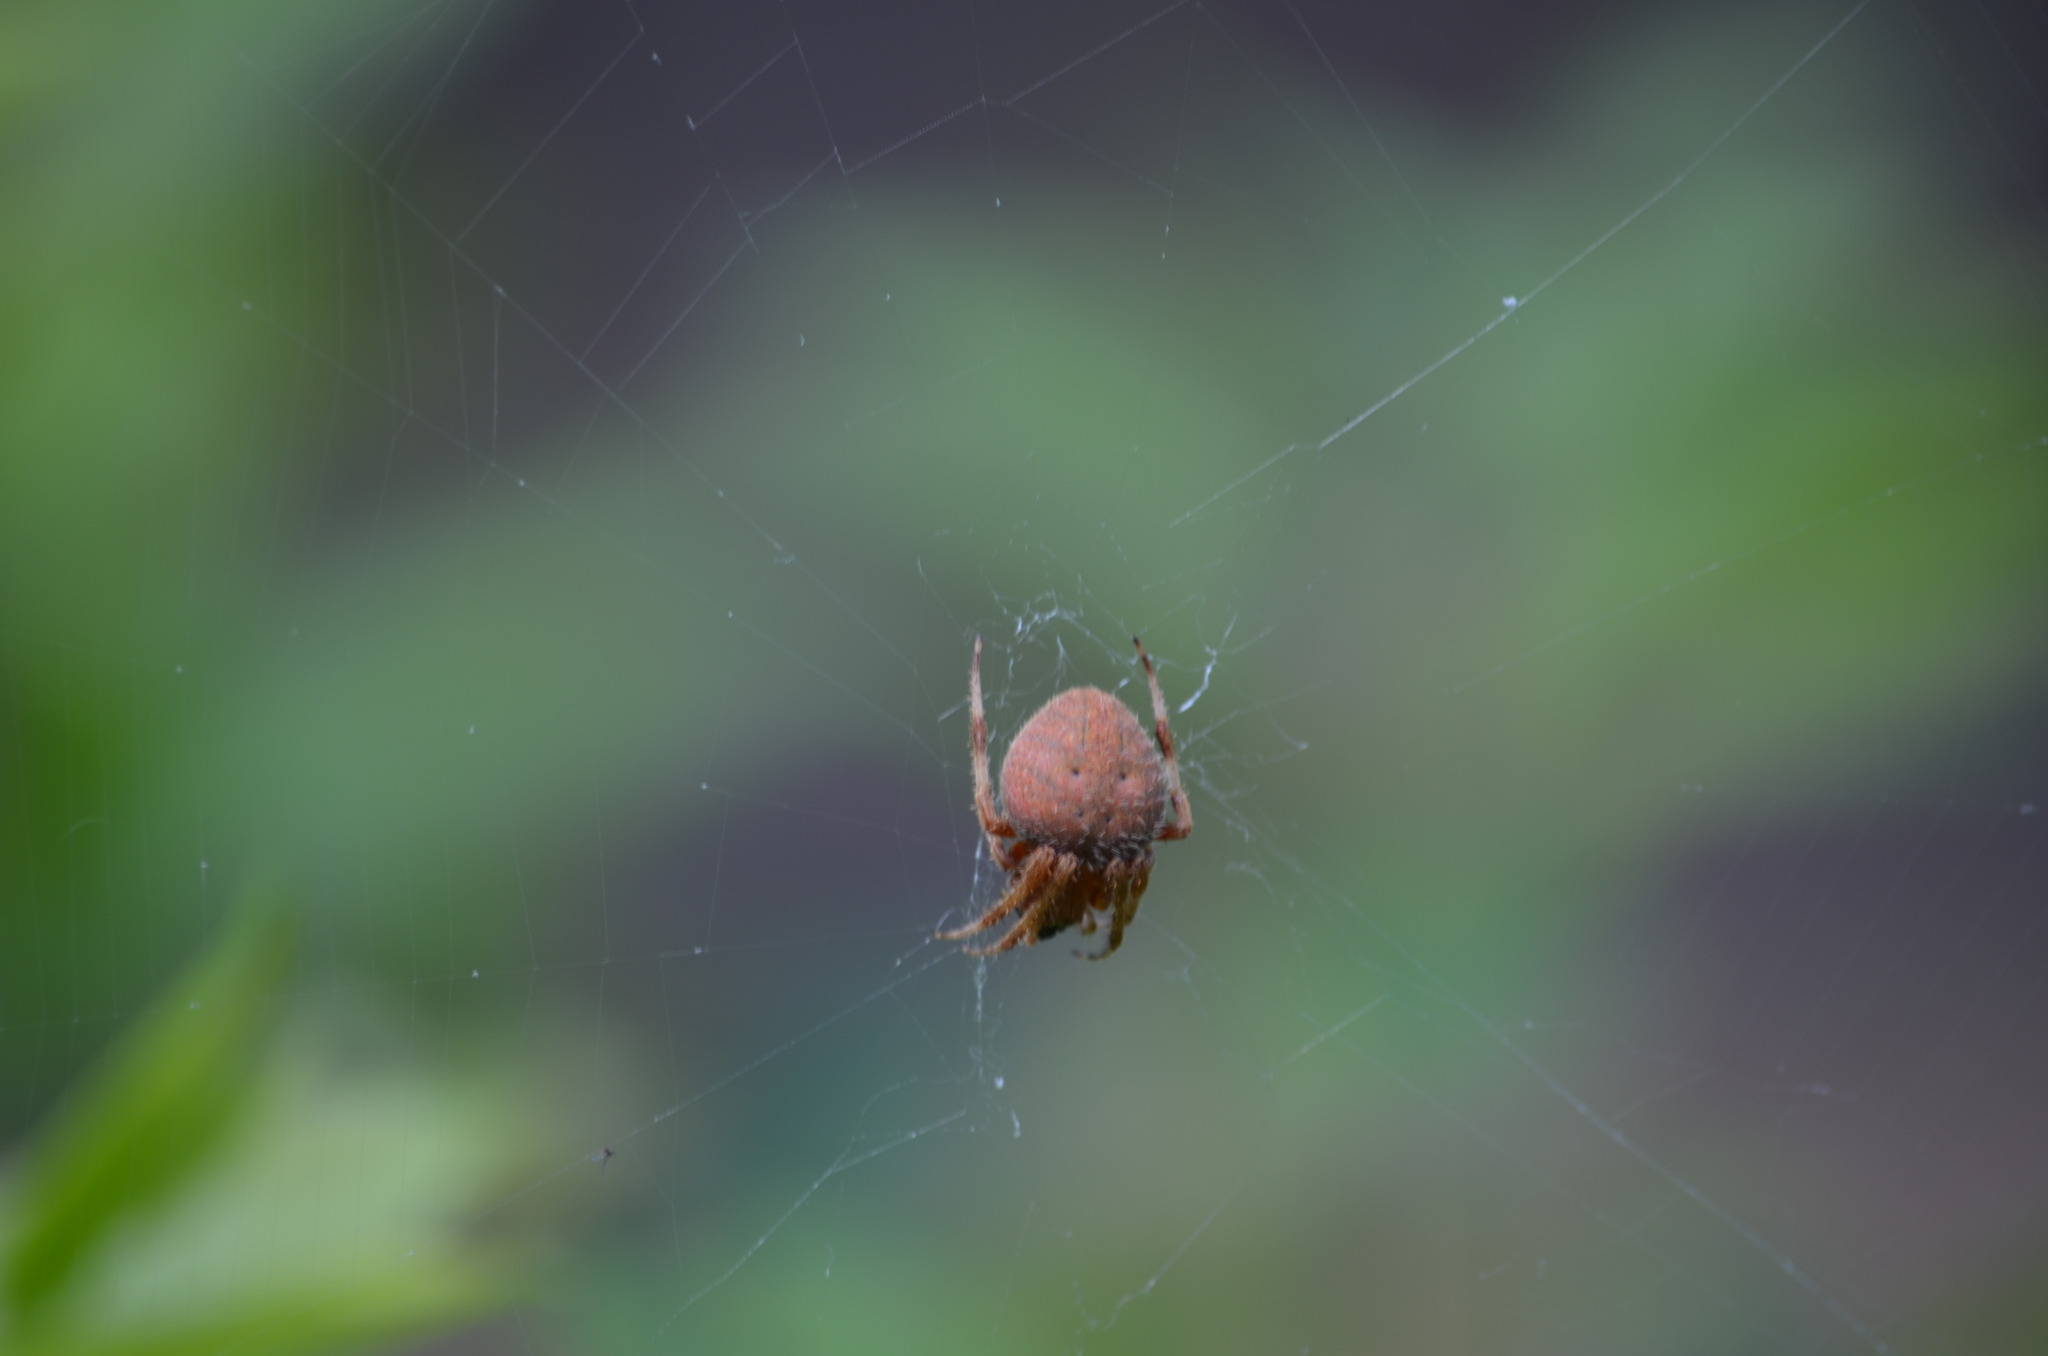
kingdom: Animalia
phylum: Arthropoda
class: Arachnida
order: Araneae
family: Araneidae
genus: Neoscona
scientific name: Neoscona crucifera
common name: Spotted orbweaver
